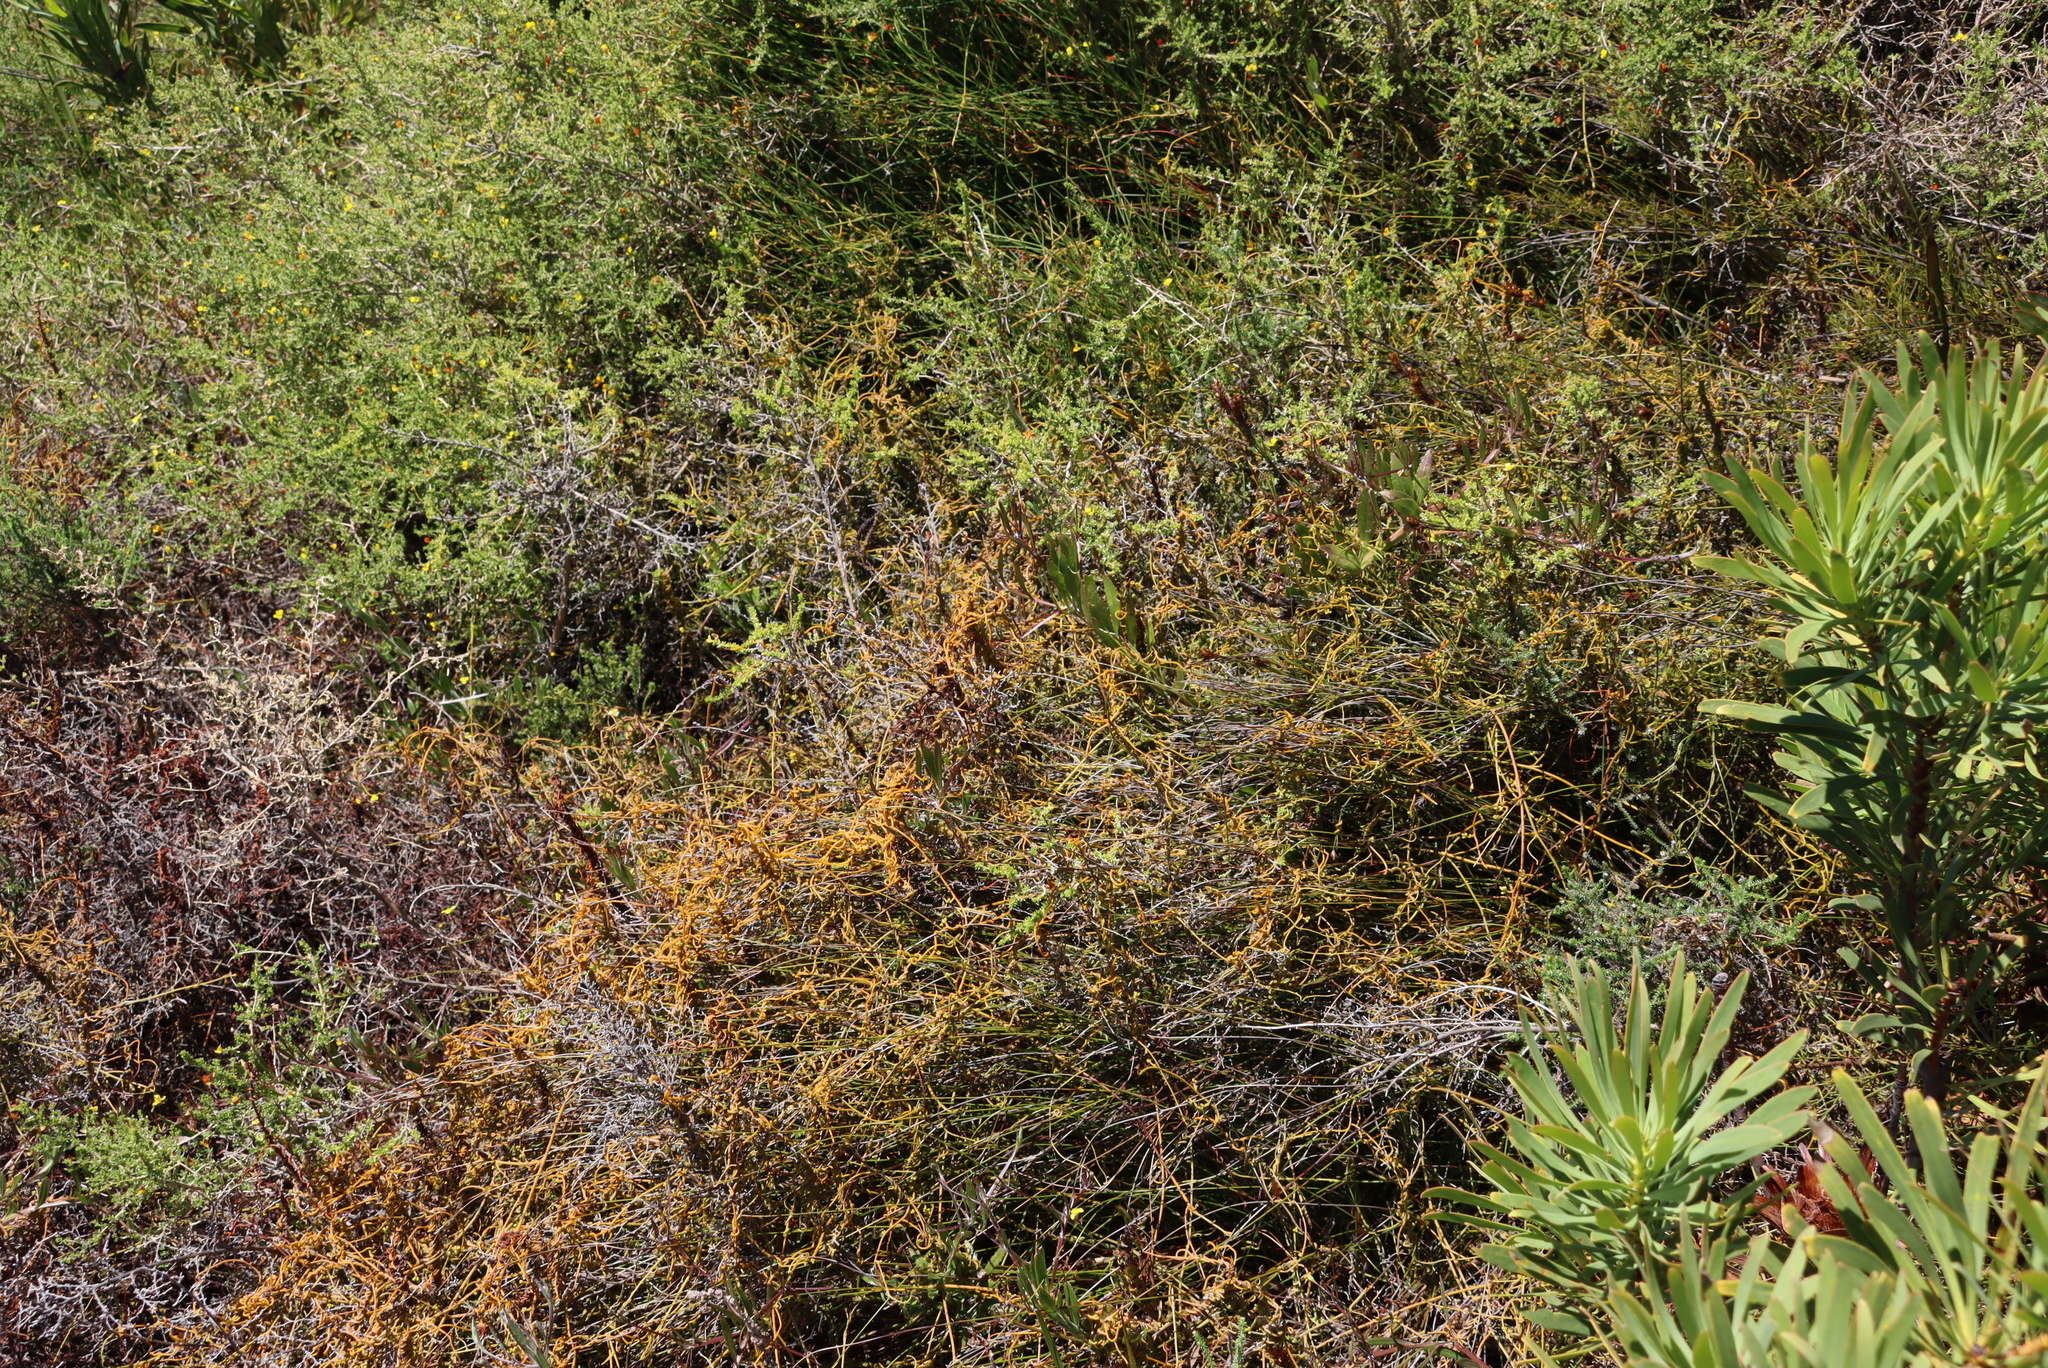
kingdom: Plantae
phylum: Tracheophyta
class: Magnoliopsida
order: Laurales
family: Lauraceae
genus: Cassytha
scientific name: Cassytha ciliolata
